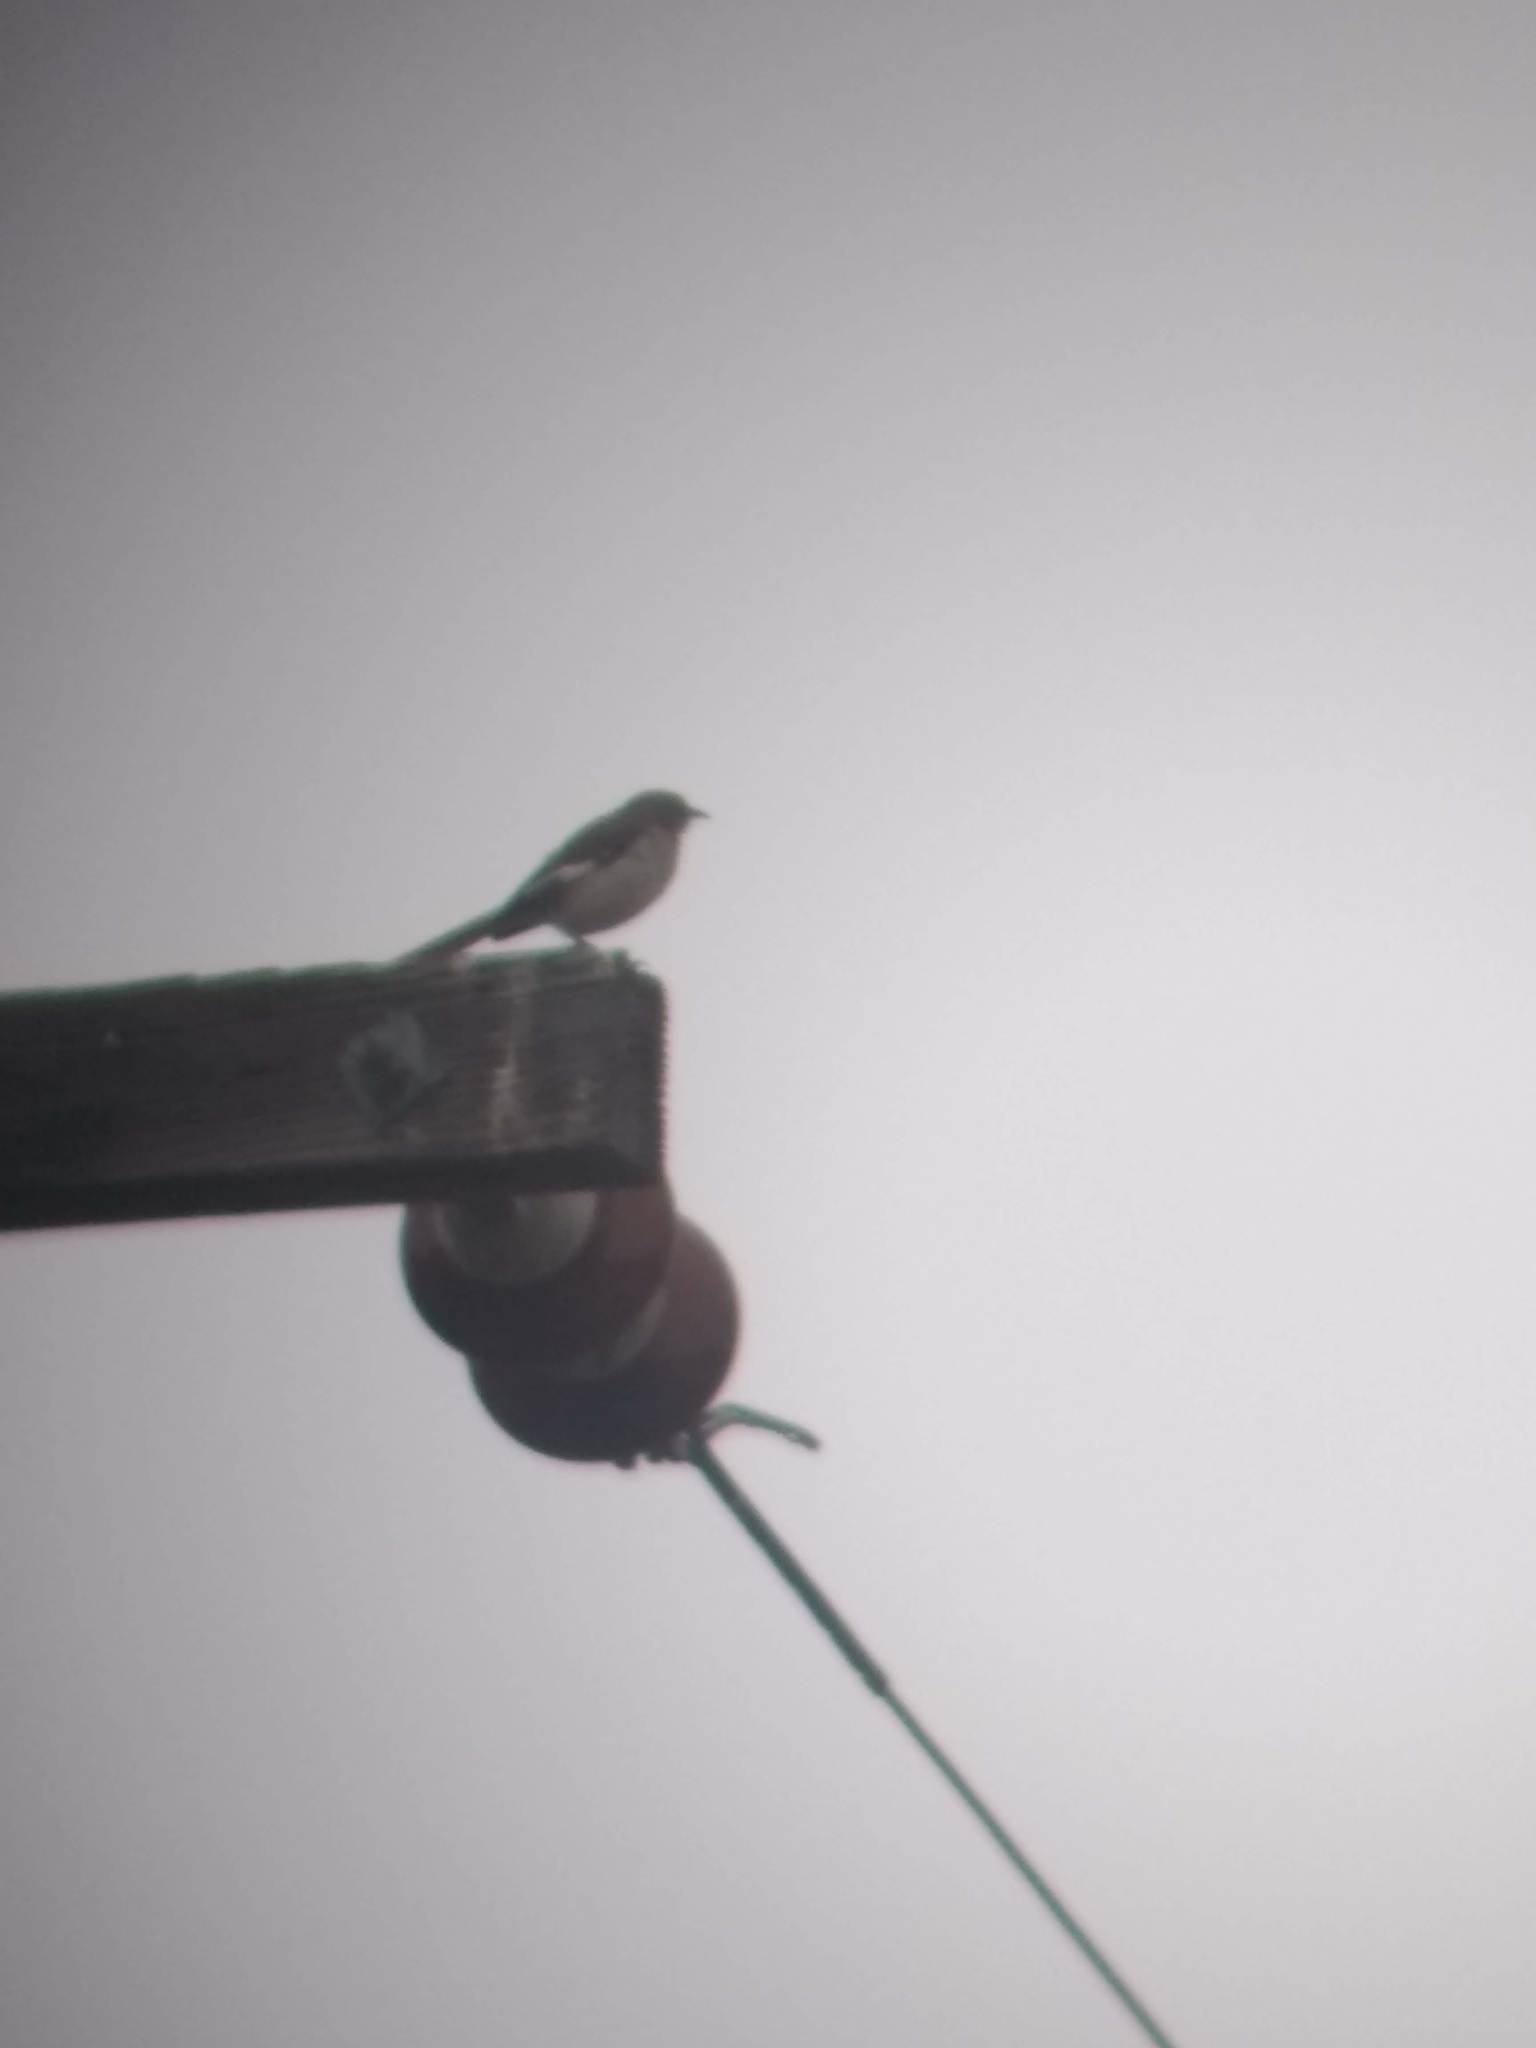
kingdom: Animalia
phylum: Chordata
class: Aves
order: Passeriformes
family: Mimidae
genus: Mimus
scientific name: Mimus polyglottos
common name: Northern mockingbird
